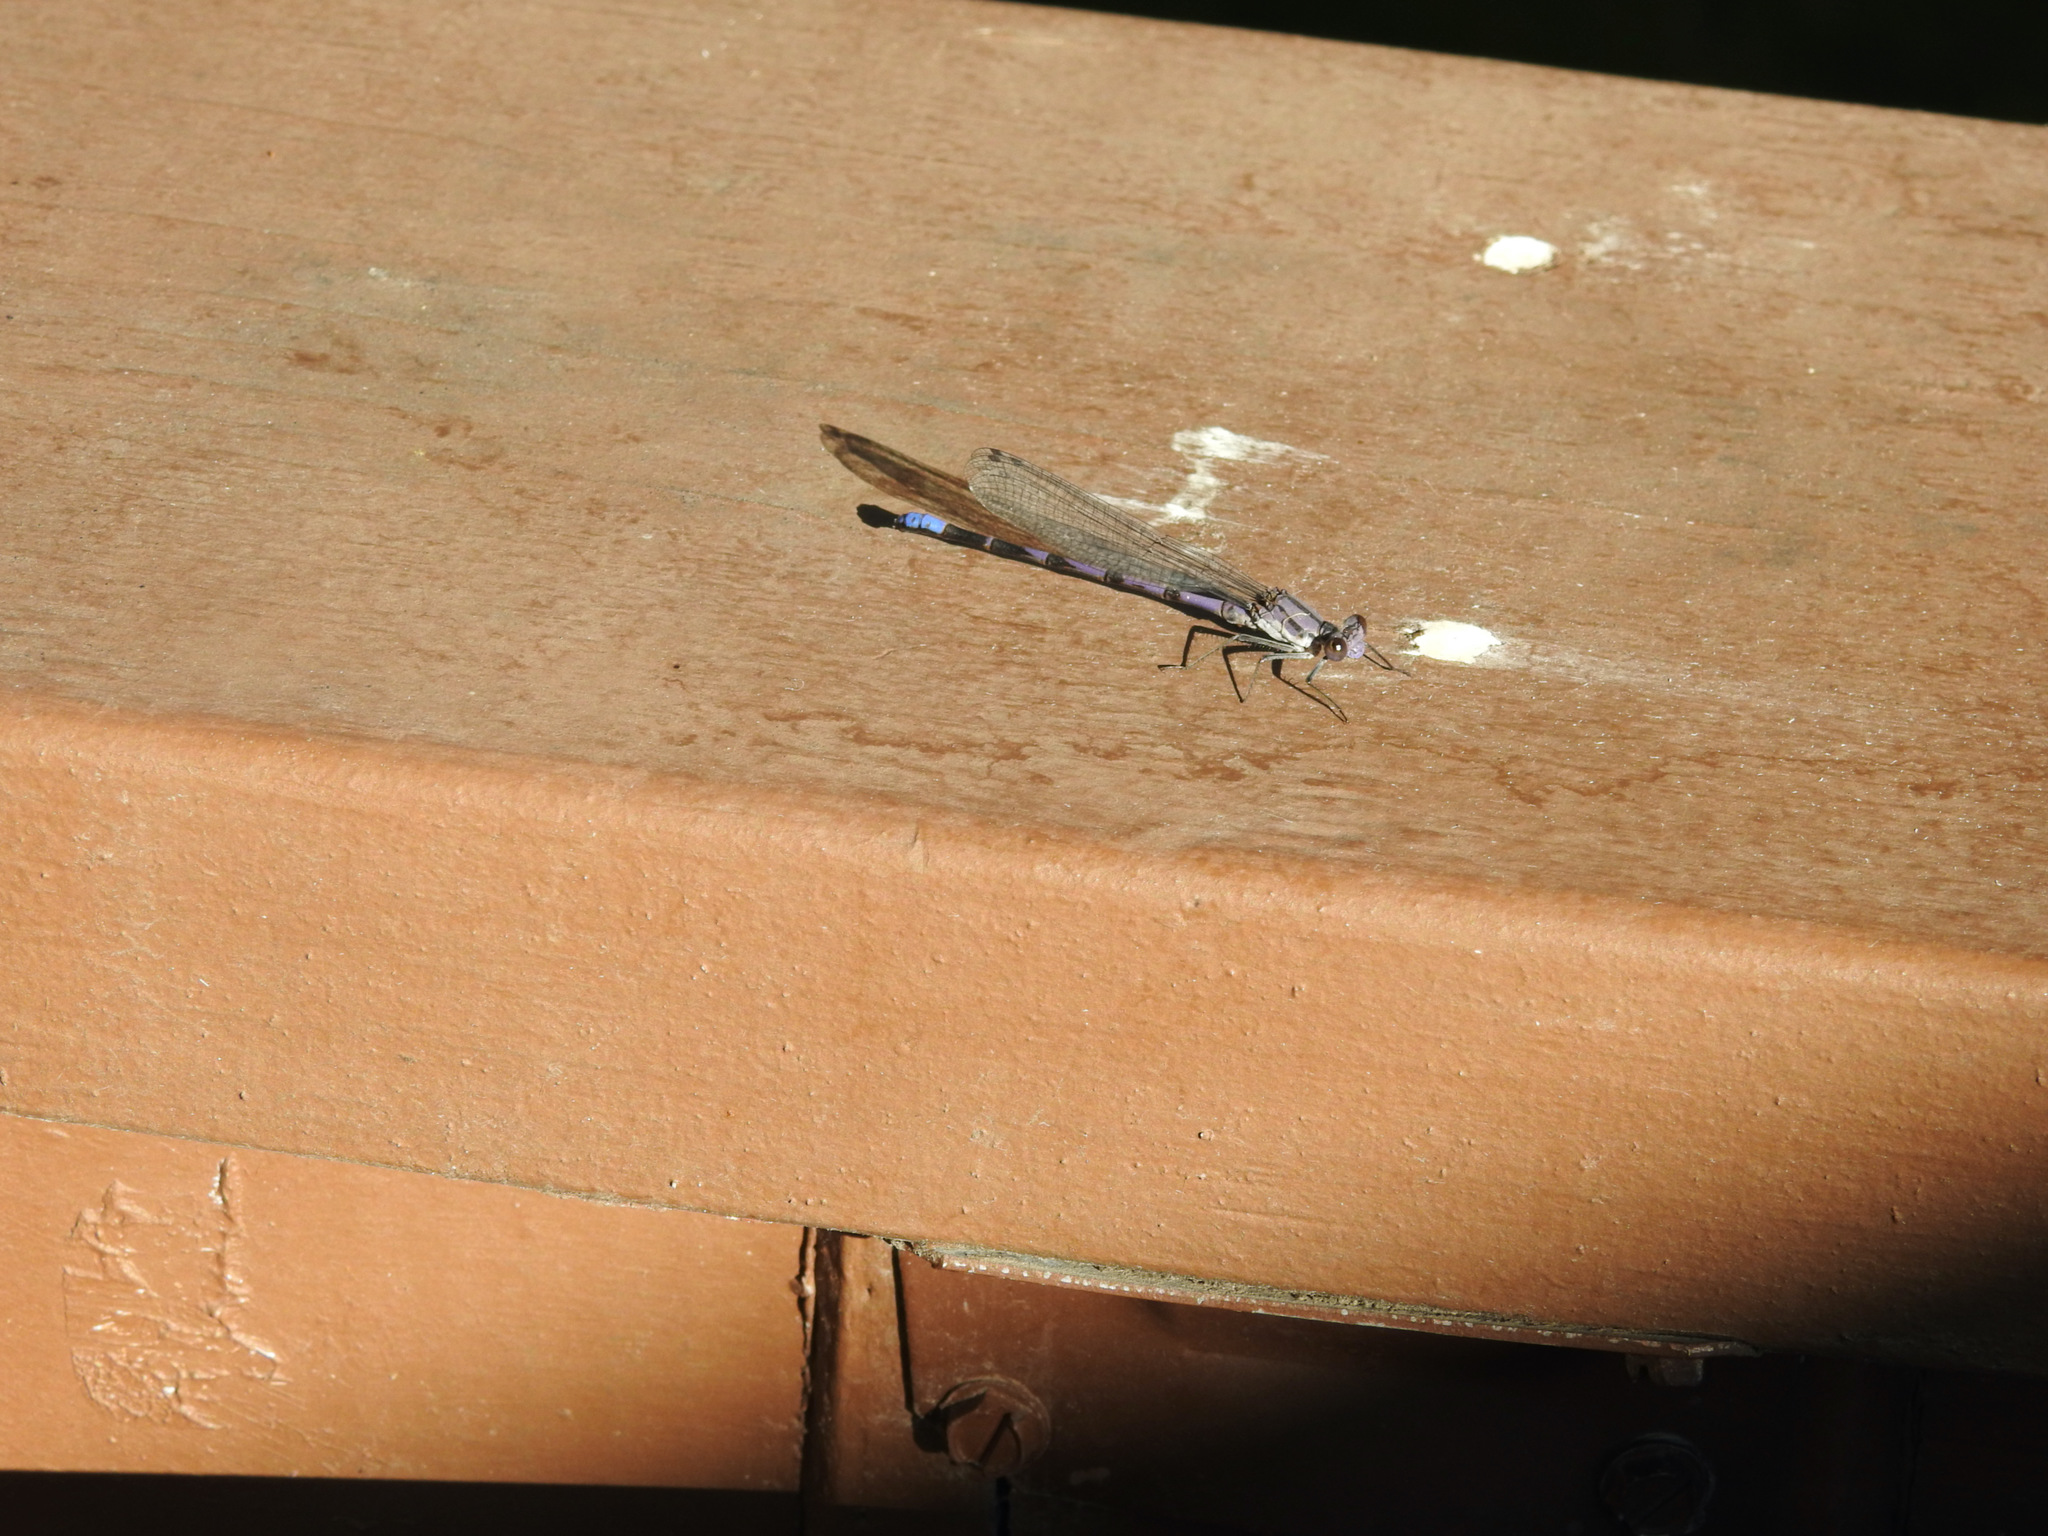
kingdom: Animalia
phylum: Arthropoda
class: Insecta
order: Odonata
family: Coenagrionidae
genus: Argia
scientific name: Argia emma
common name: Emma's dancer
